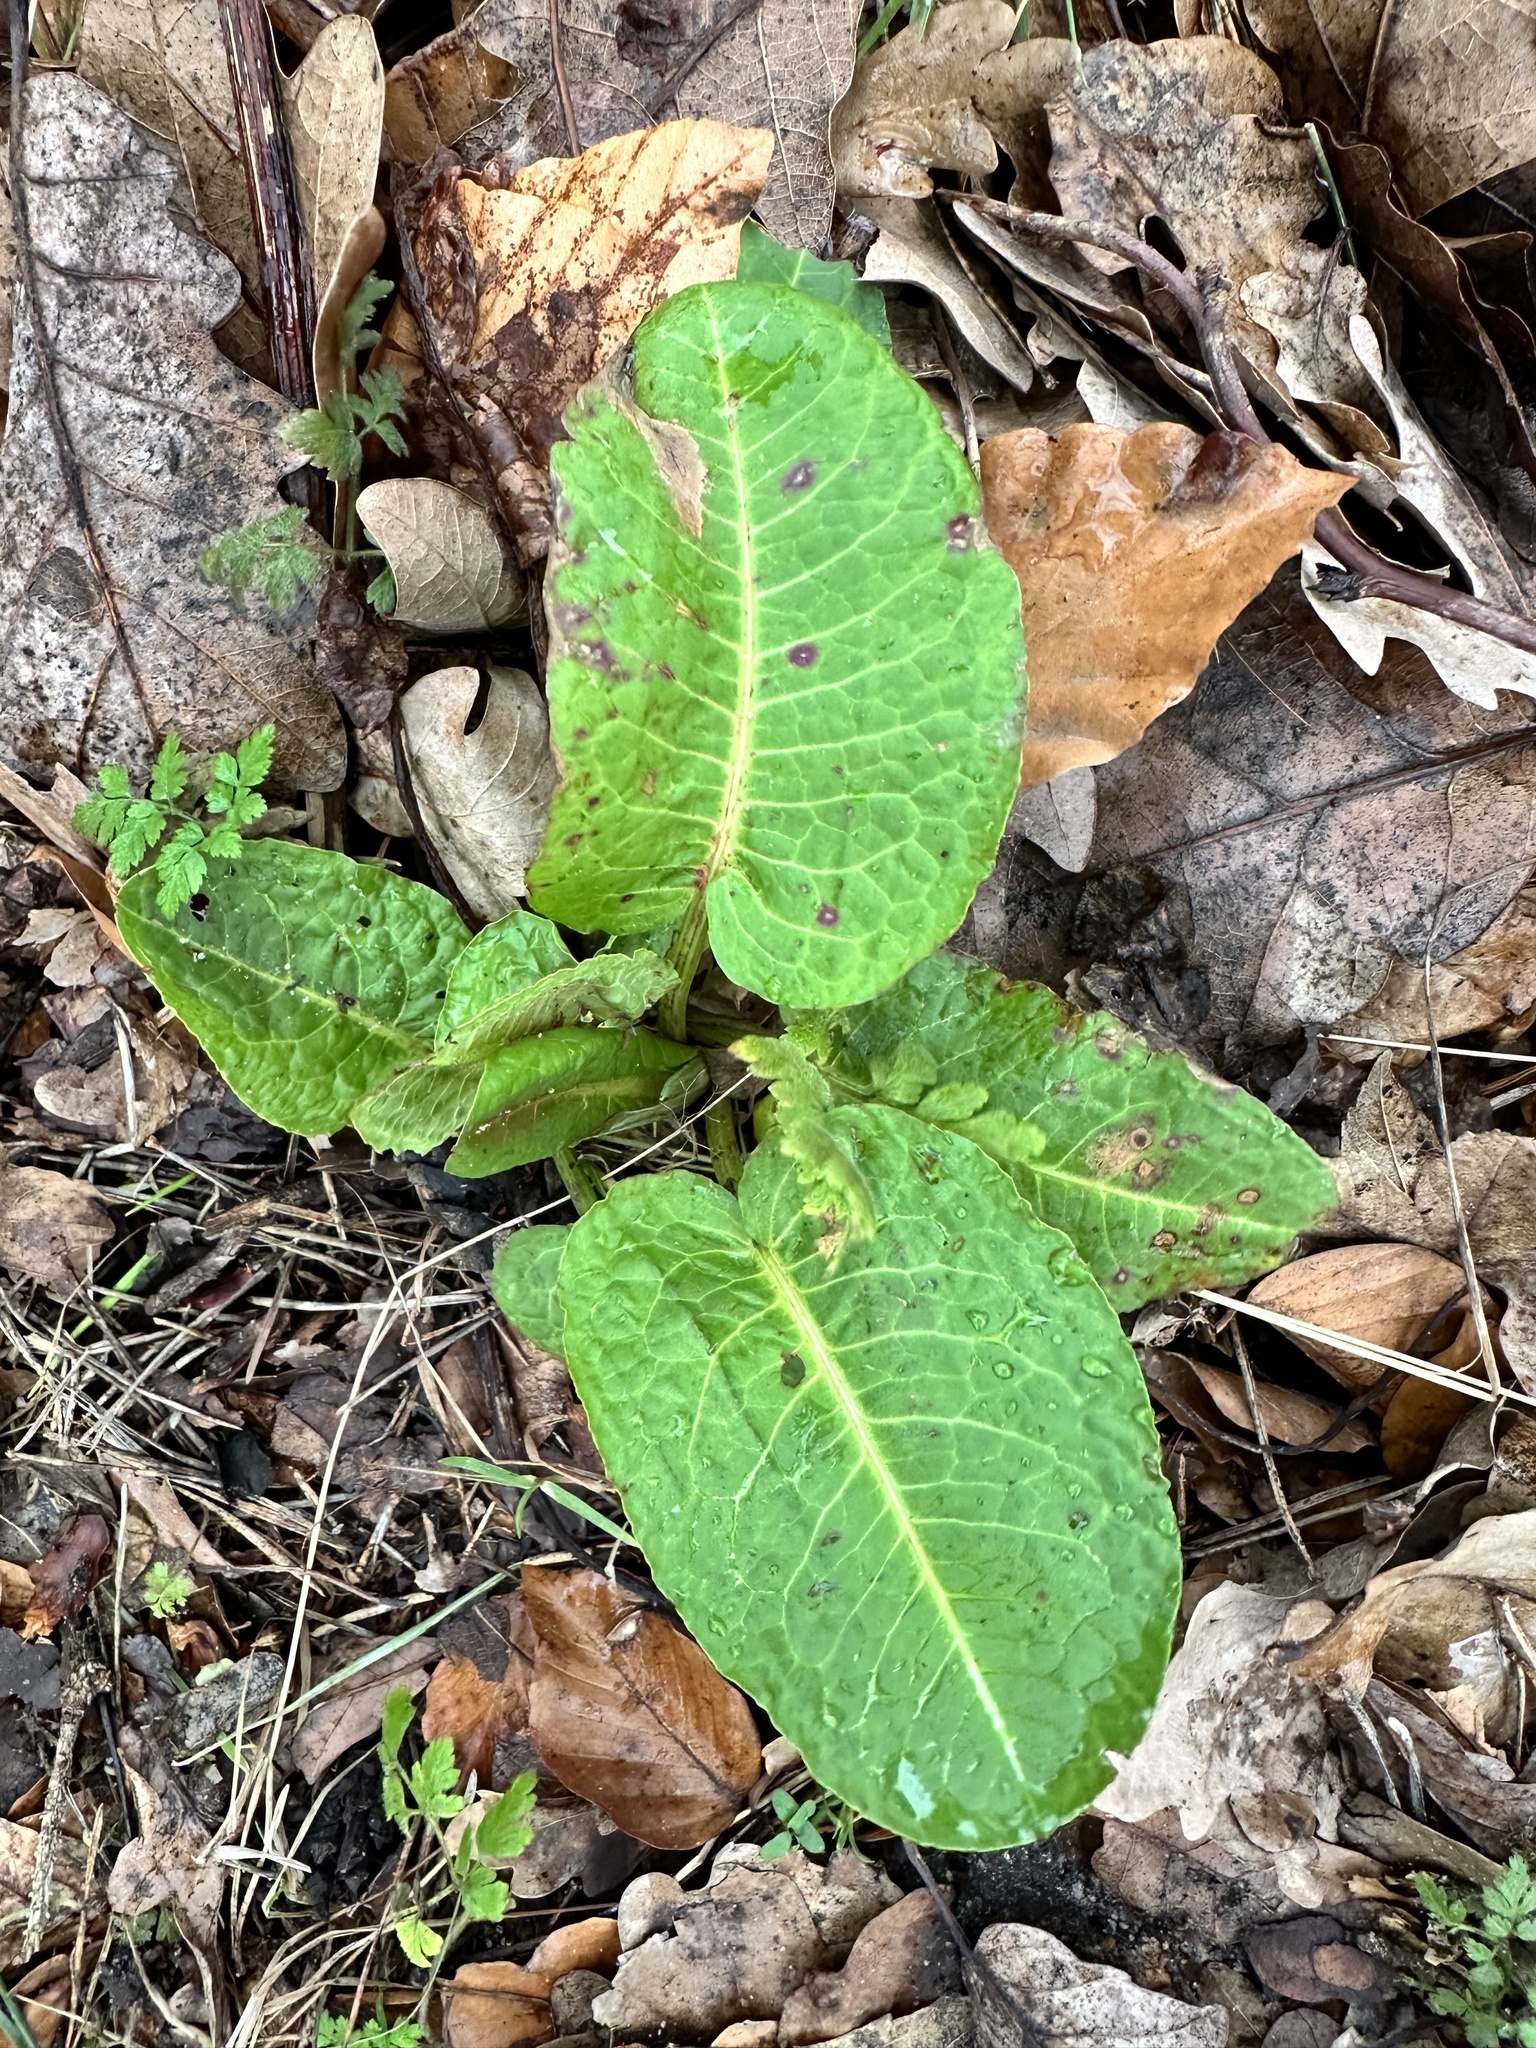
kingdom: Plantae
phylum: Tracheophyta
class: Magnoliopsida
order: Caryophyllales
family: Polygonaceae
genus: Rumex
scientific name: Rumex obtusifolius
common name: Bitter dock
